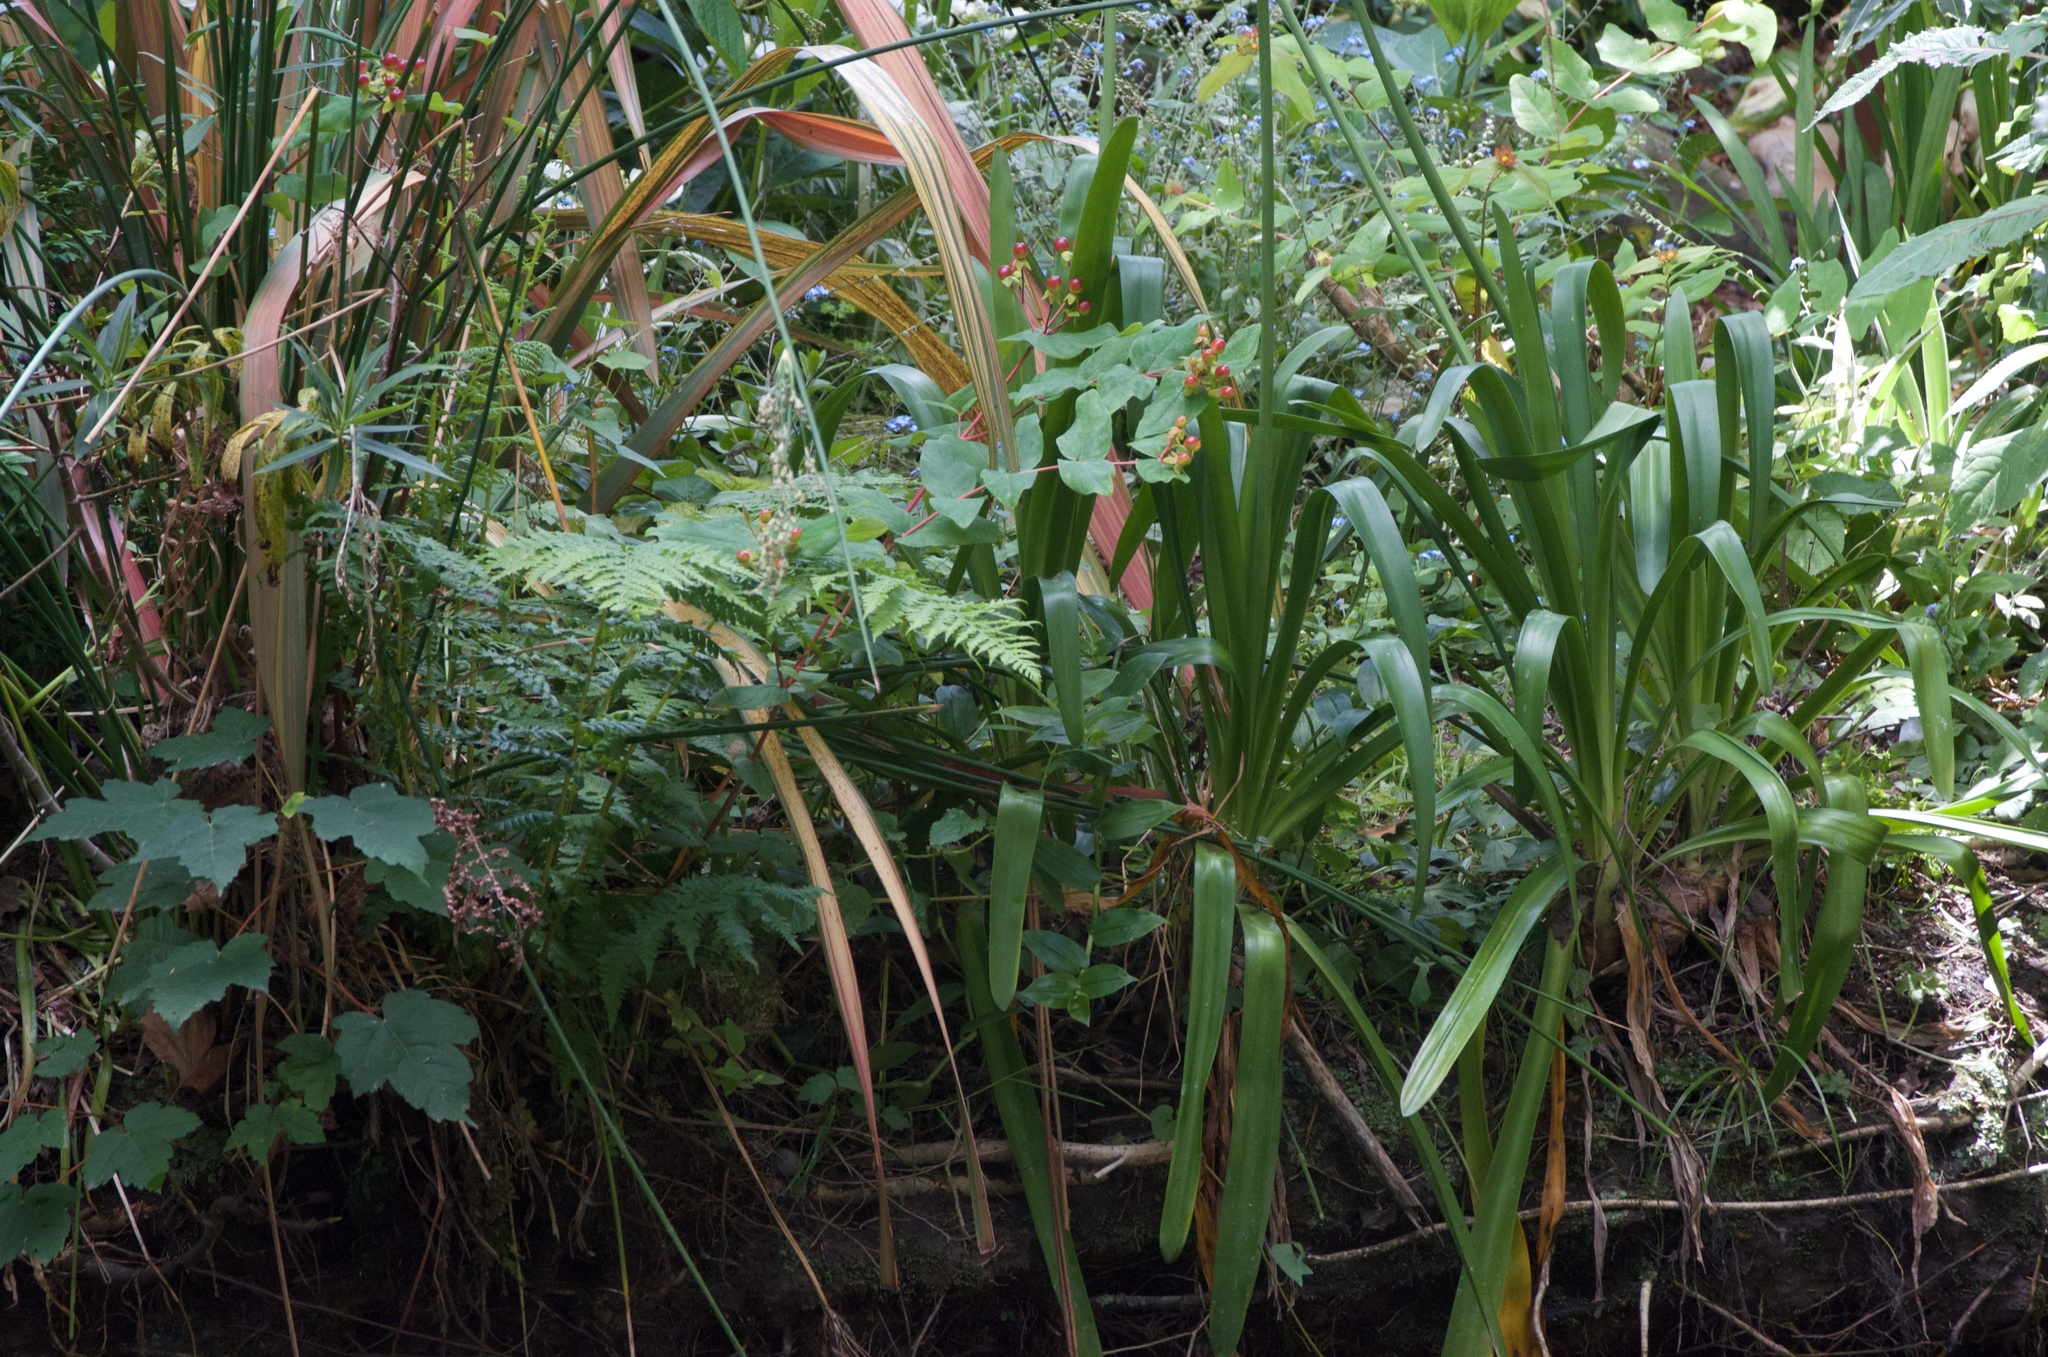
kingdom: Plantae
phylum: Tracheophyta
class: Magnoliopsida
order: Malpighiales
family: Hypericaceae
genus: Hypericum
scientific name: Hypericum androsaemum
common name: Sweet-amber
